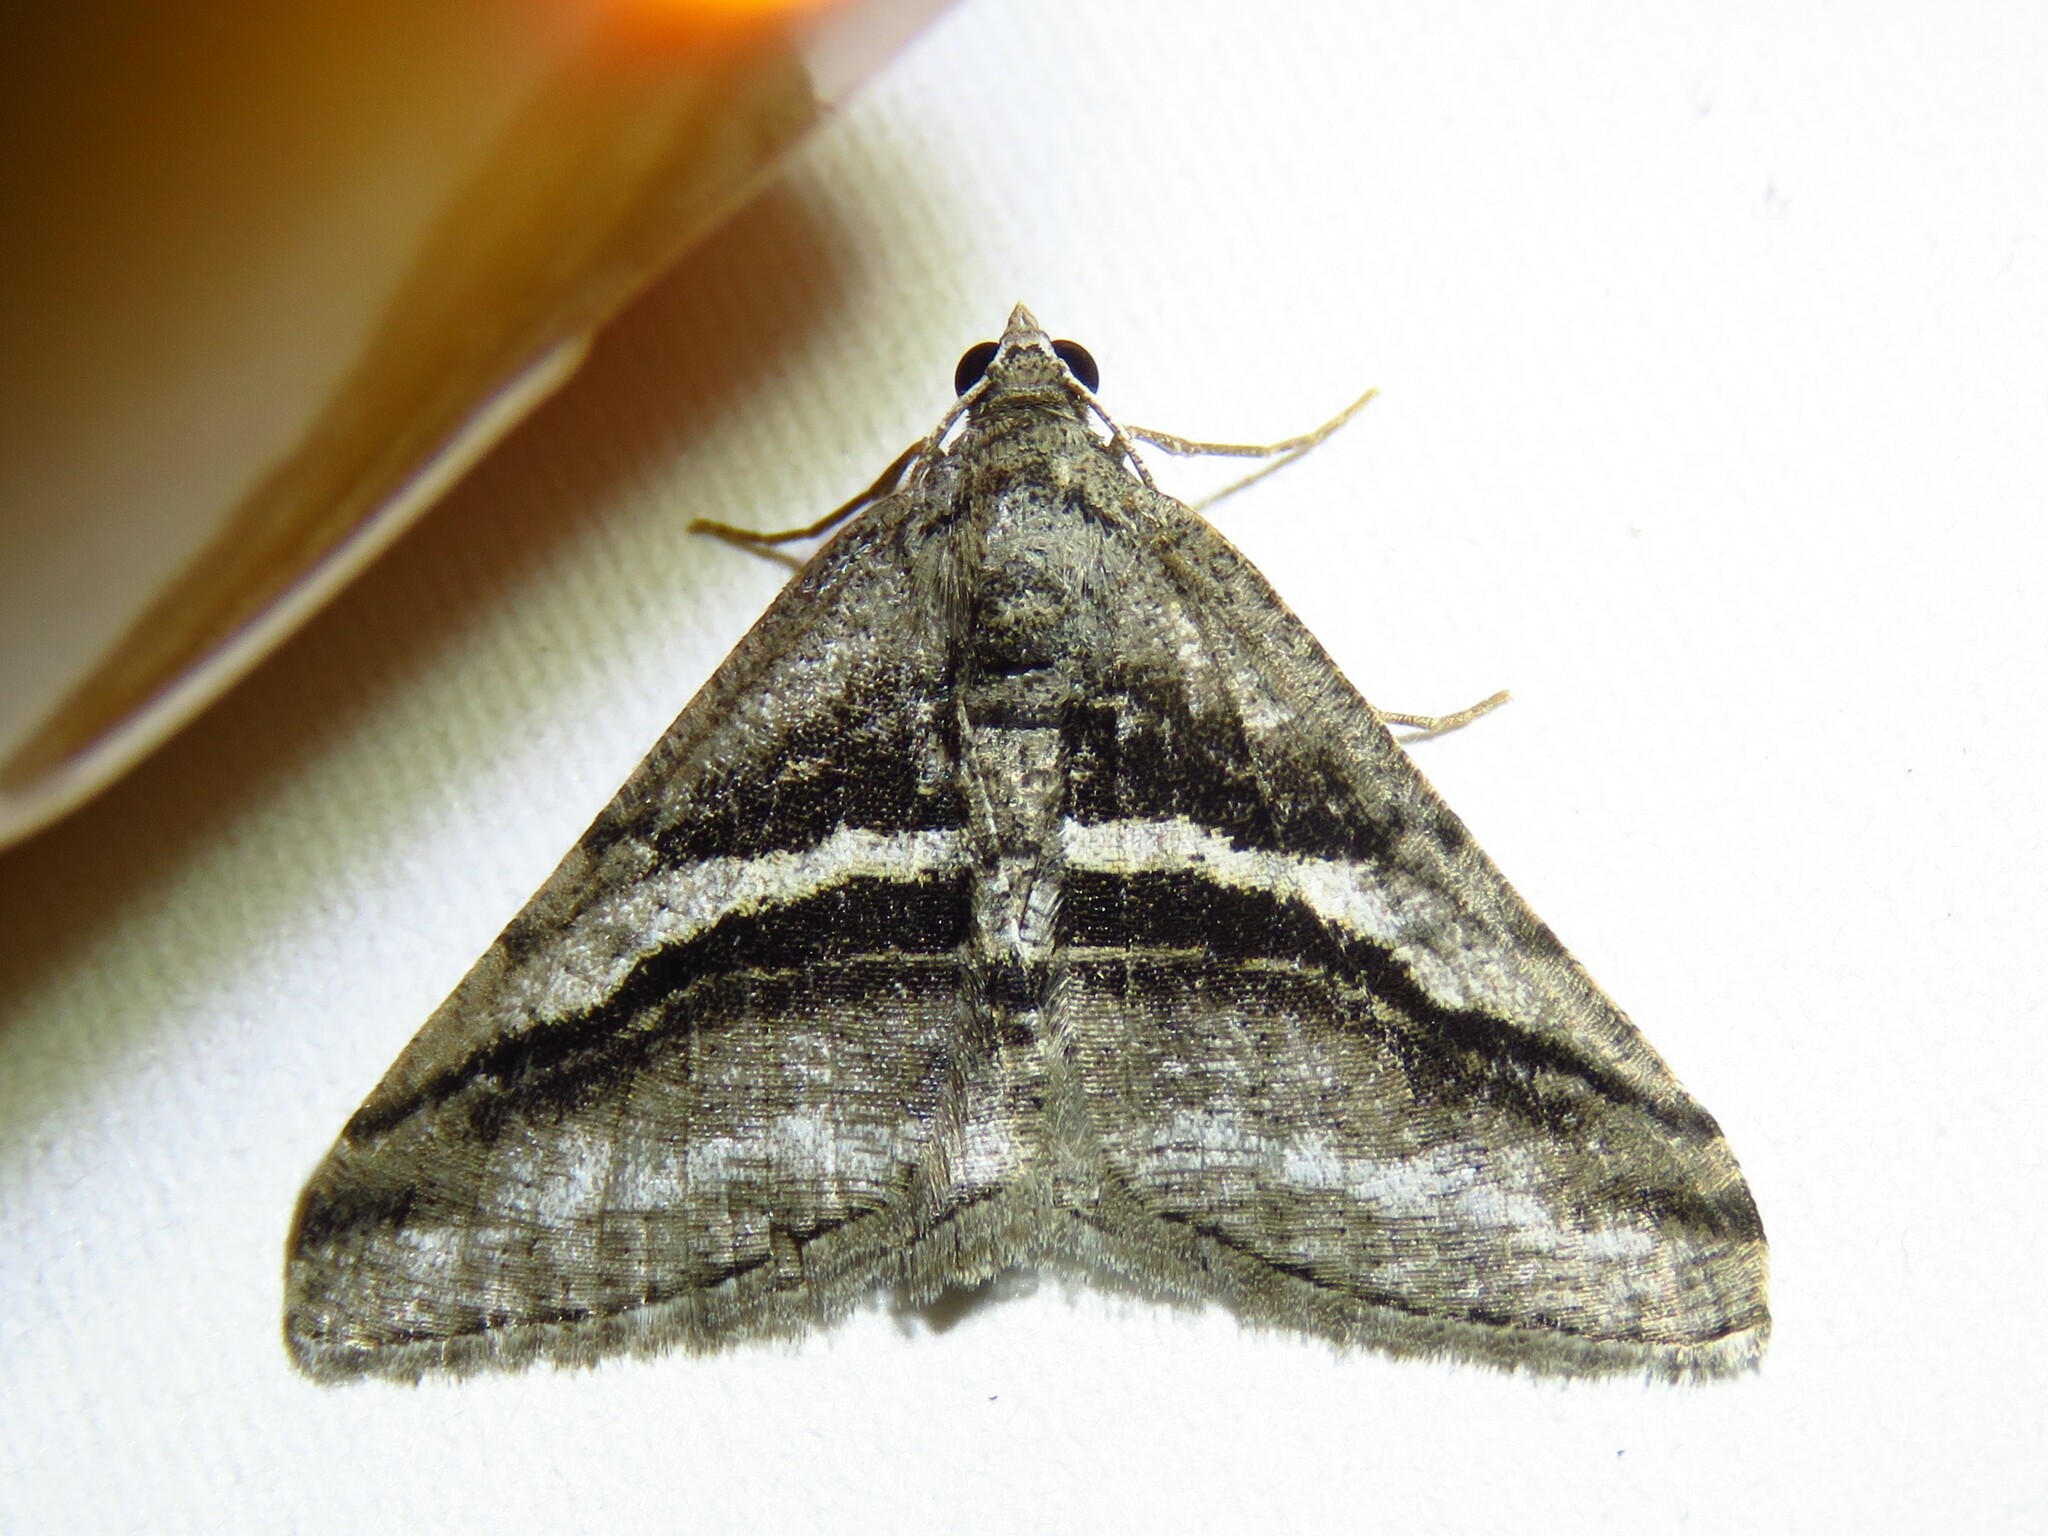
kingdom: Animalia
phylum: Arthropoda
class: Insecta
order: Lepidoptera
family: Geometridae
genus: Digrammia
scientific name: Digrammia atrofasciata
